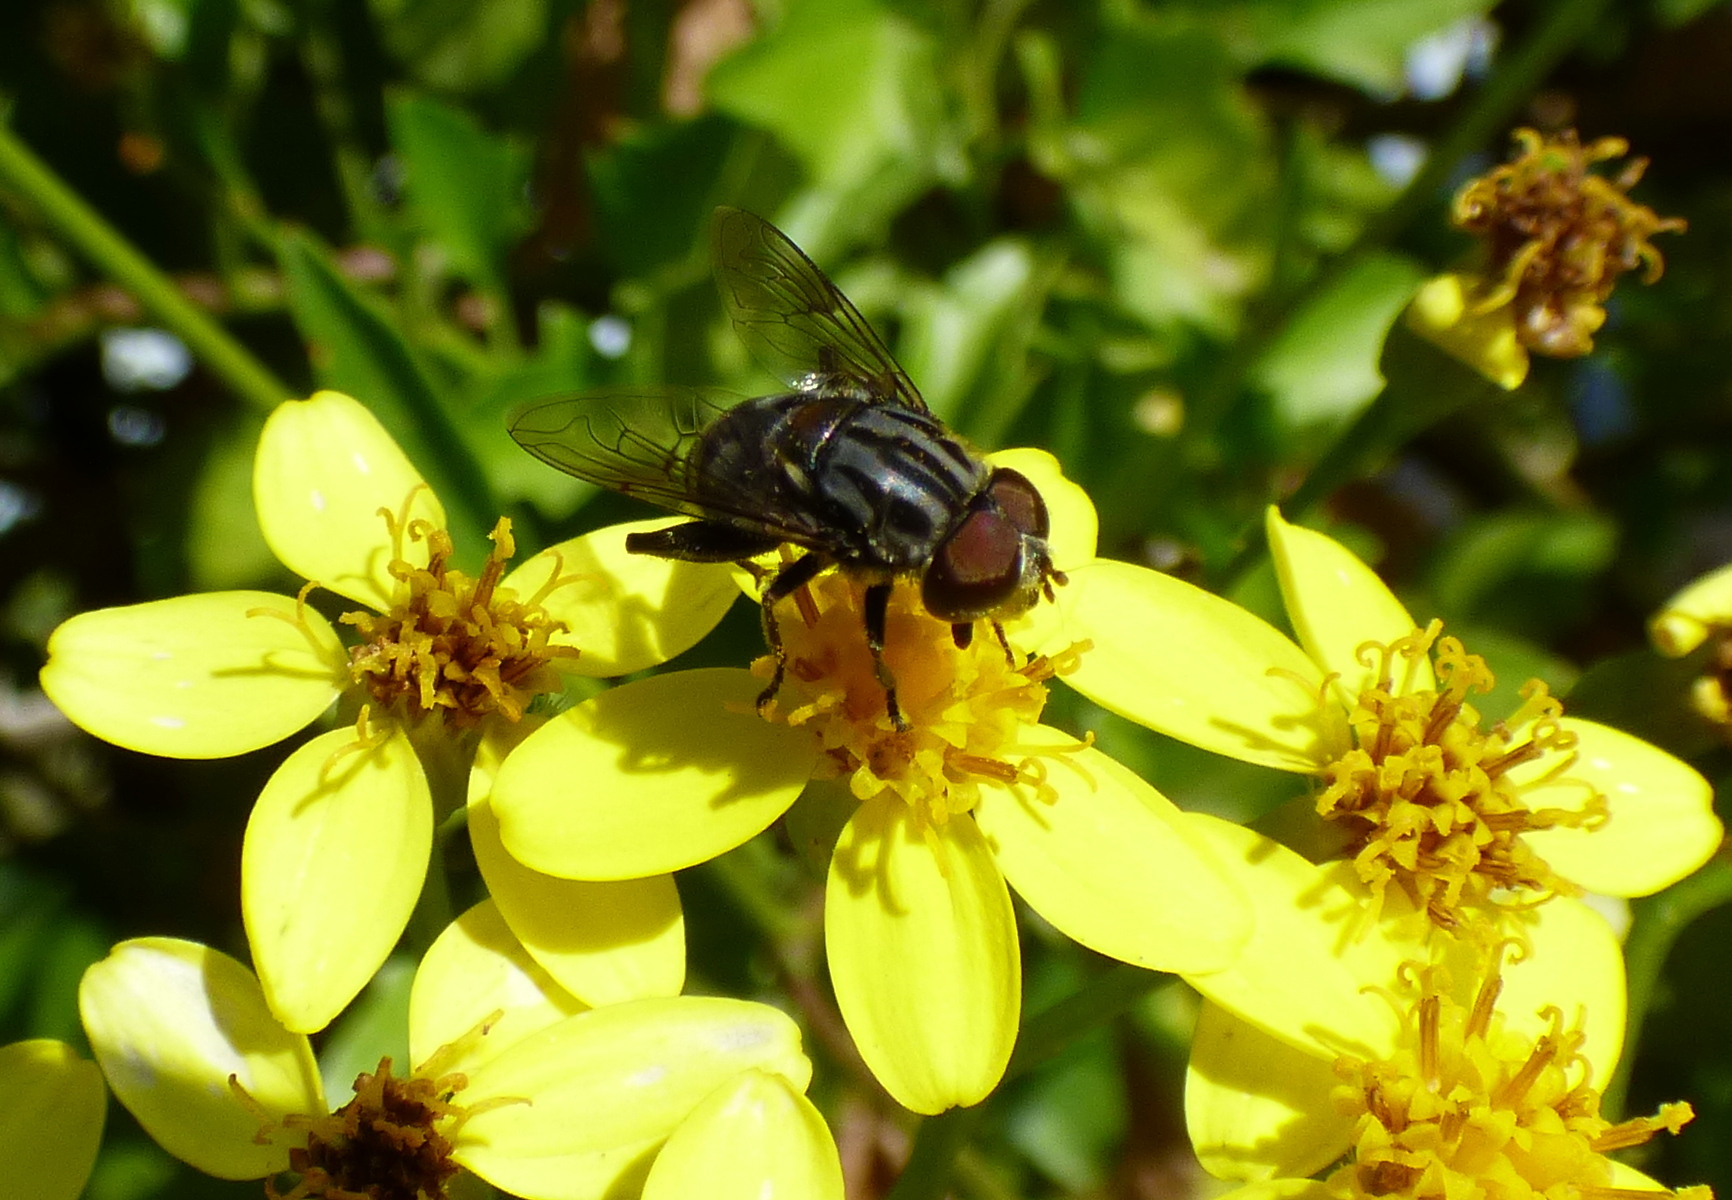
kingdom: Animalia
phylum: Arthropoda
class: Insecta
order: Diptera
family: Syrphidae
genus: Palpada
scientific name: Palpada furcata
